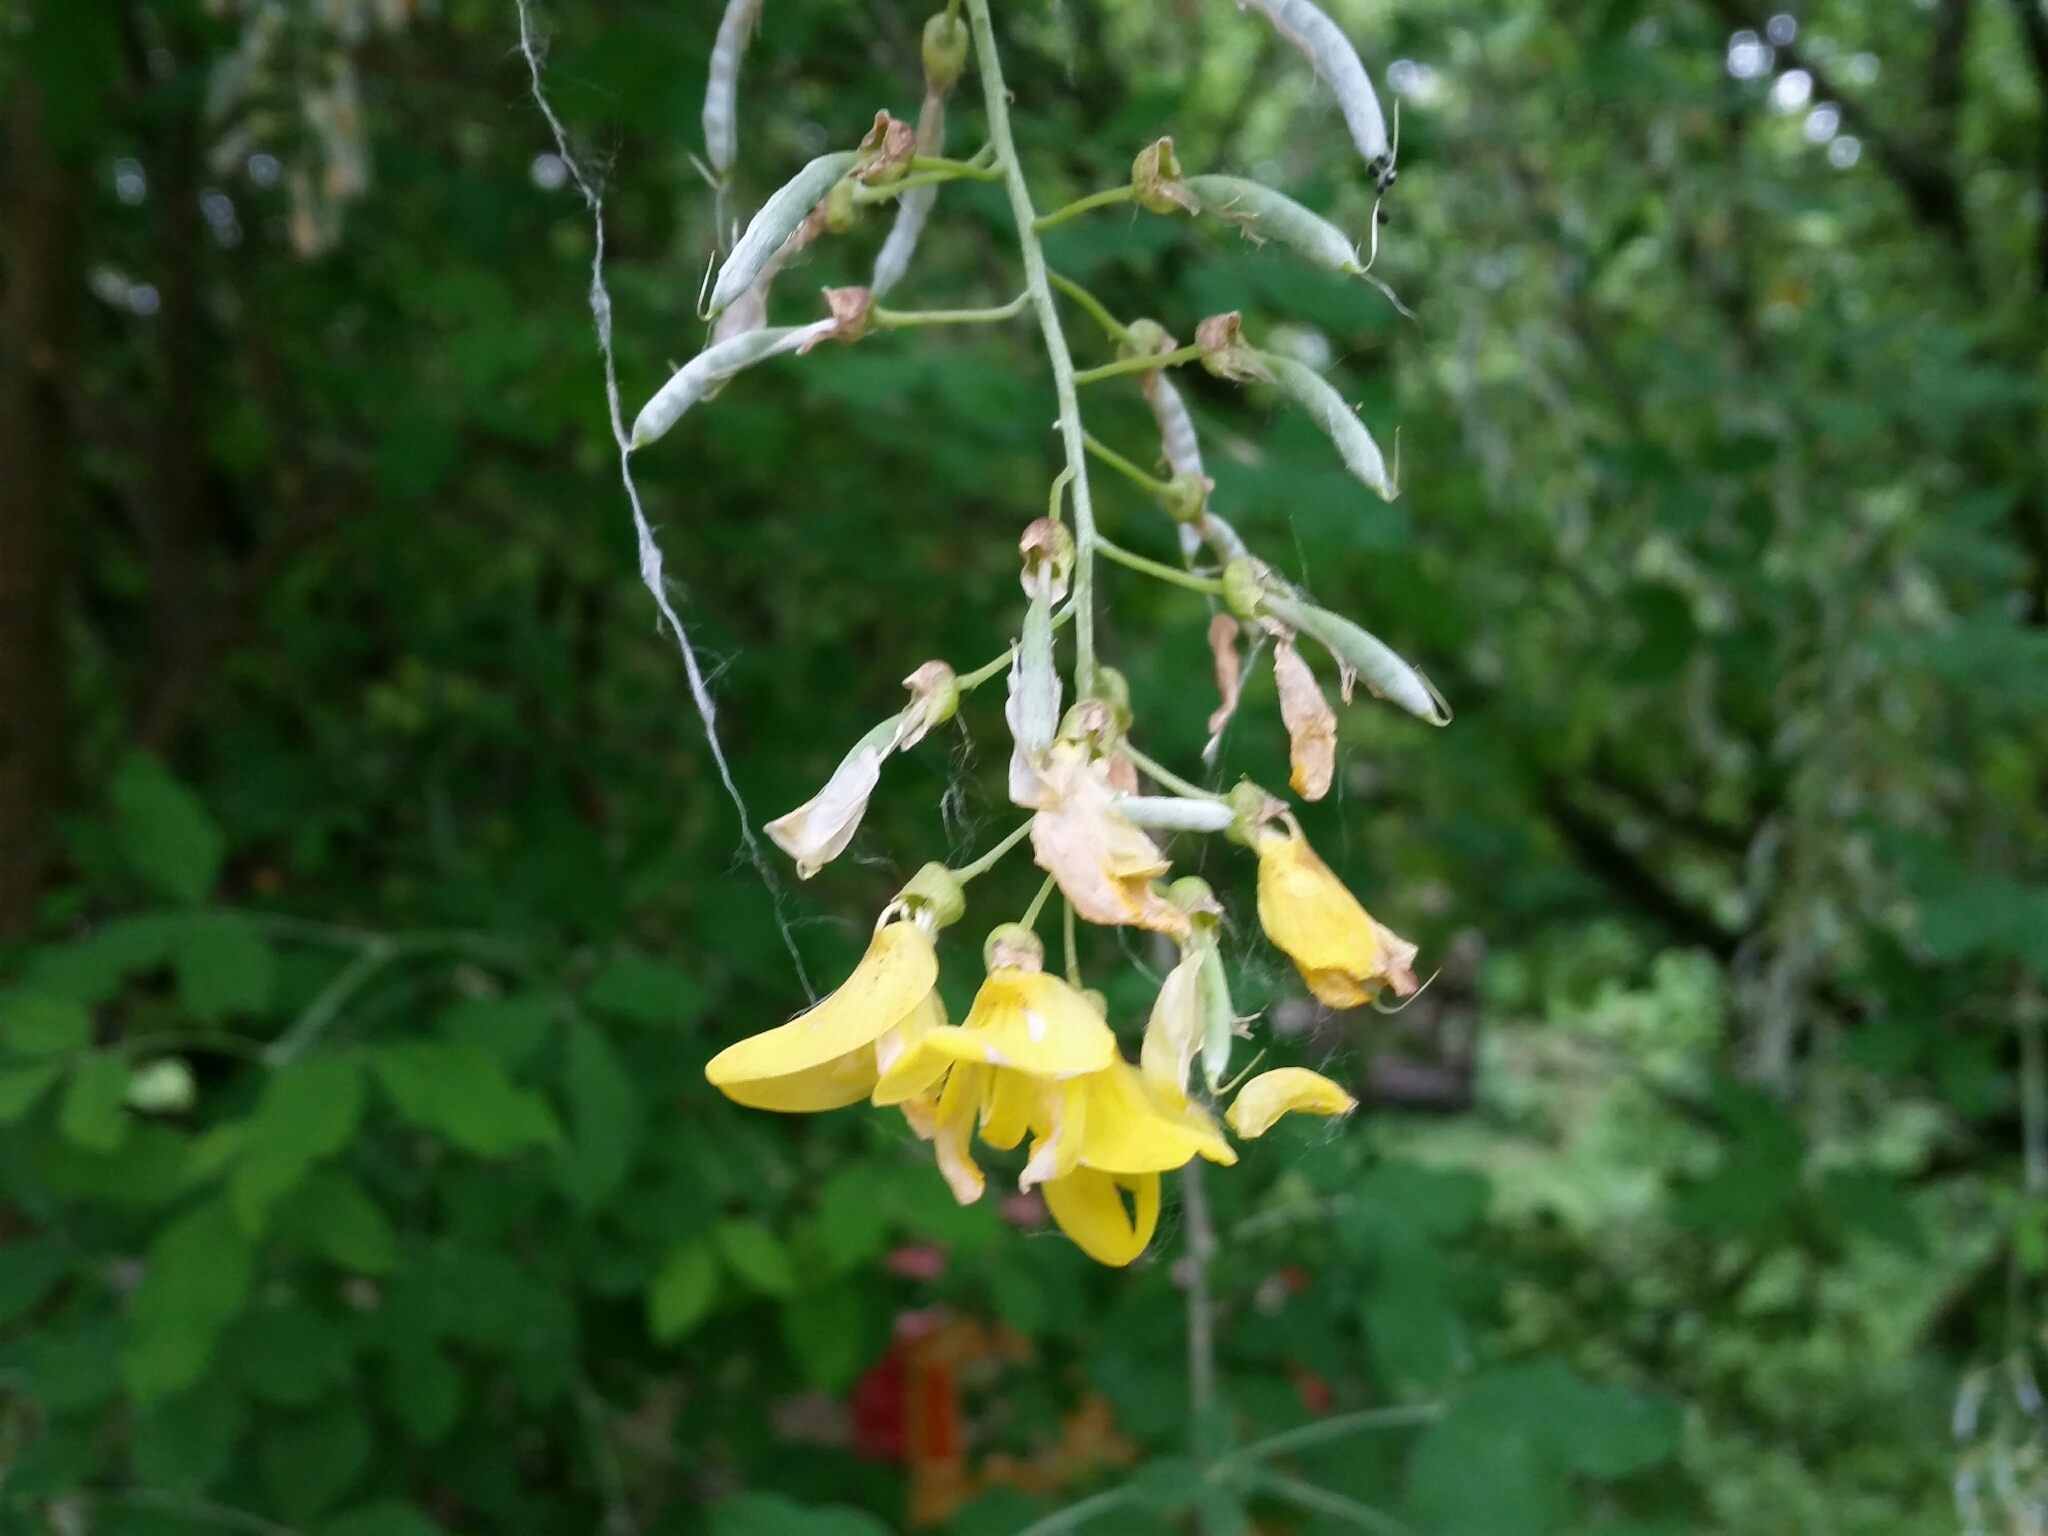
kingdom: Plantae
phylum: Tracheophyta
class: Magnoliopsida
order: Fabales
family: Fabaceae
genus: Laburnum
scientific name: Laburnum anagyroides
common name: Laburnum
